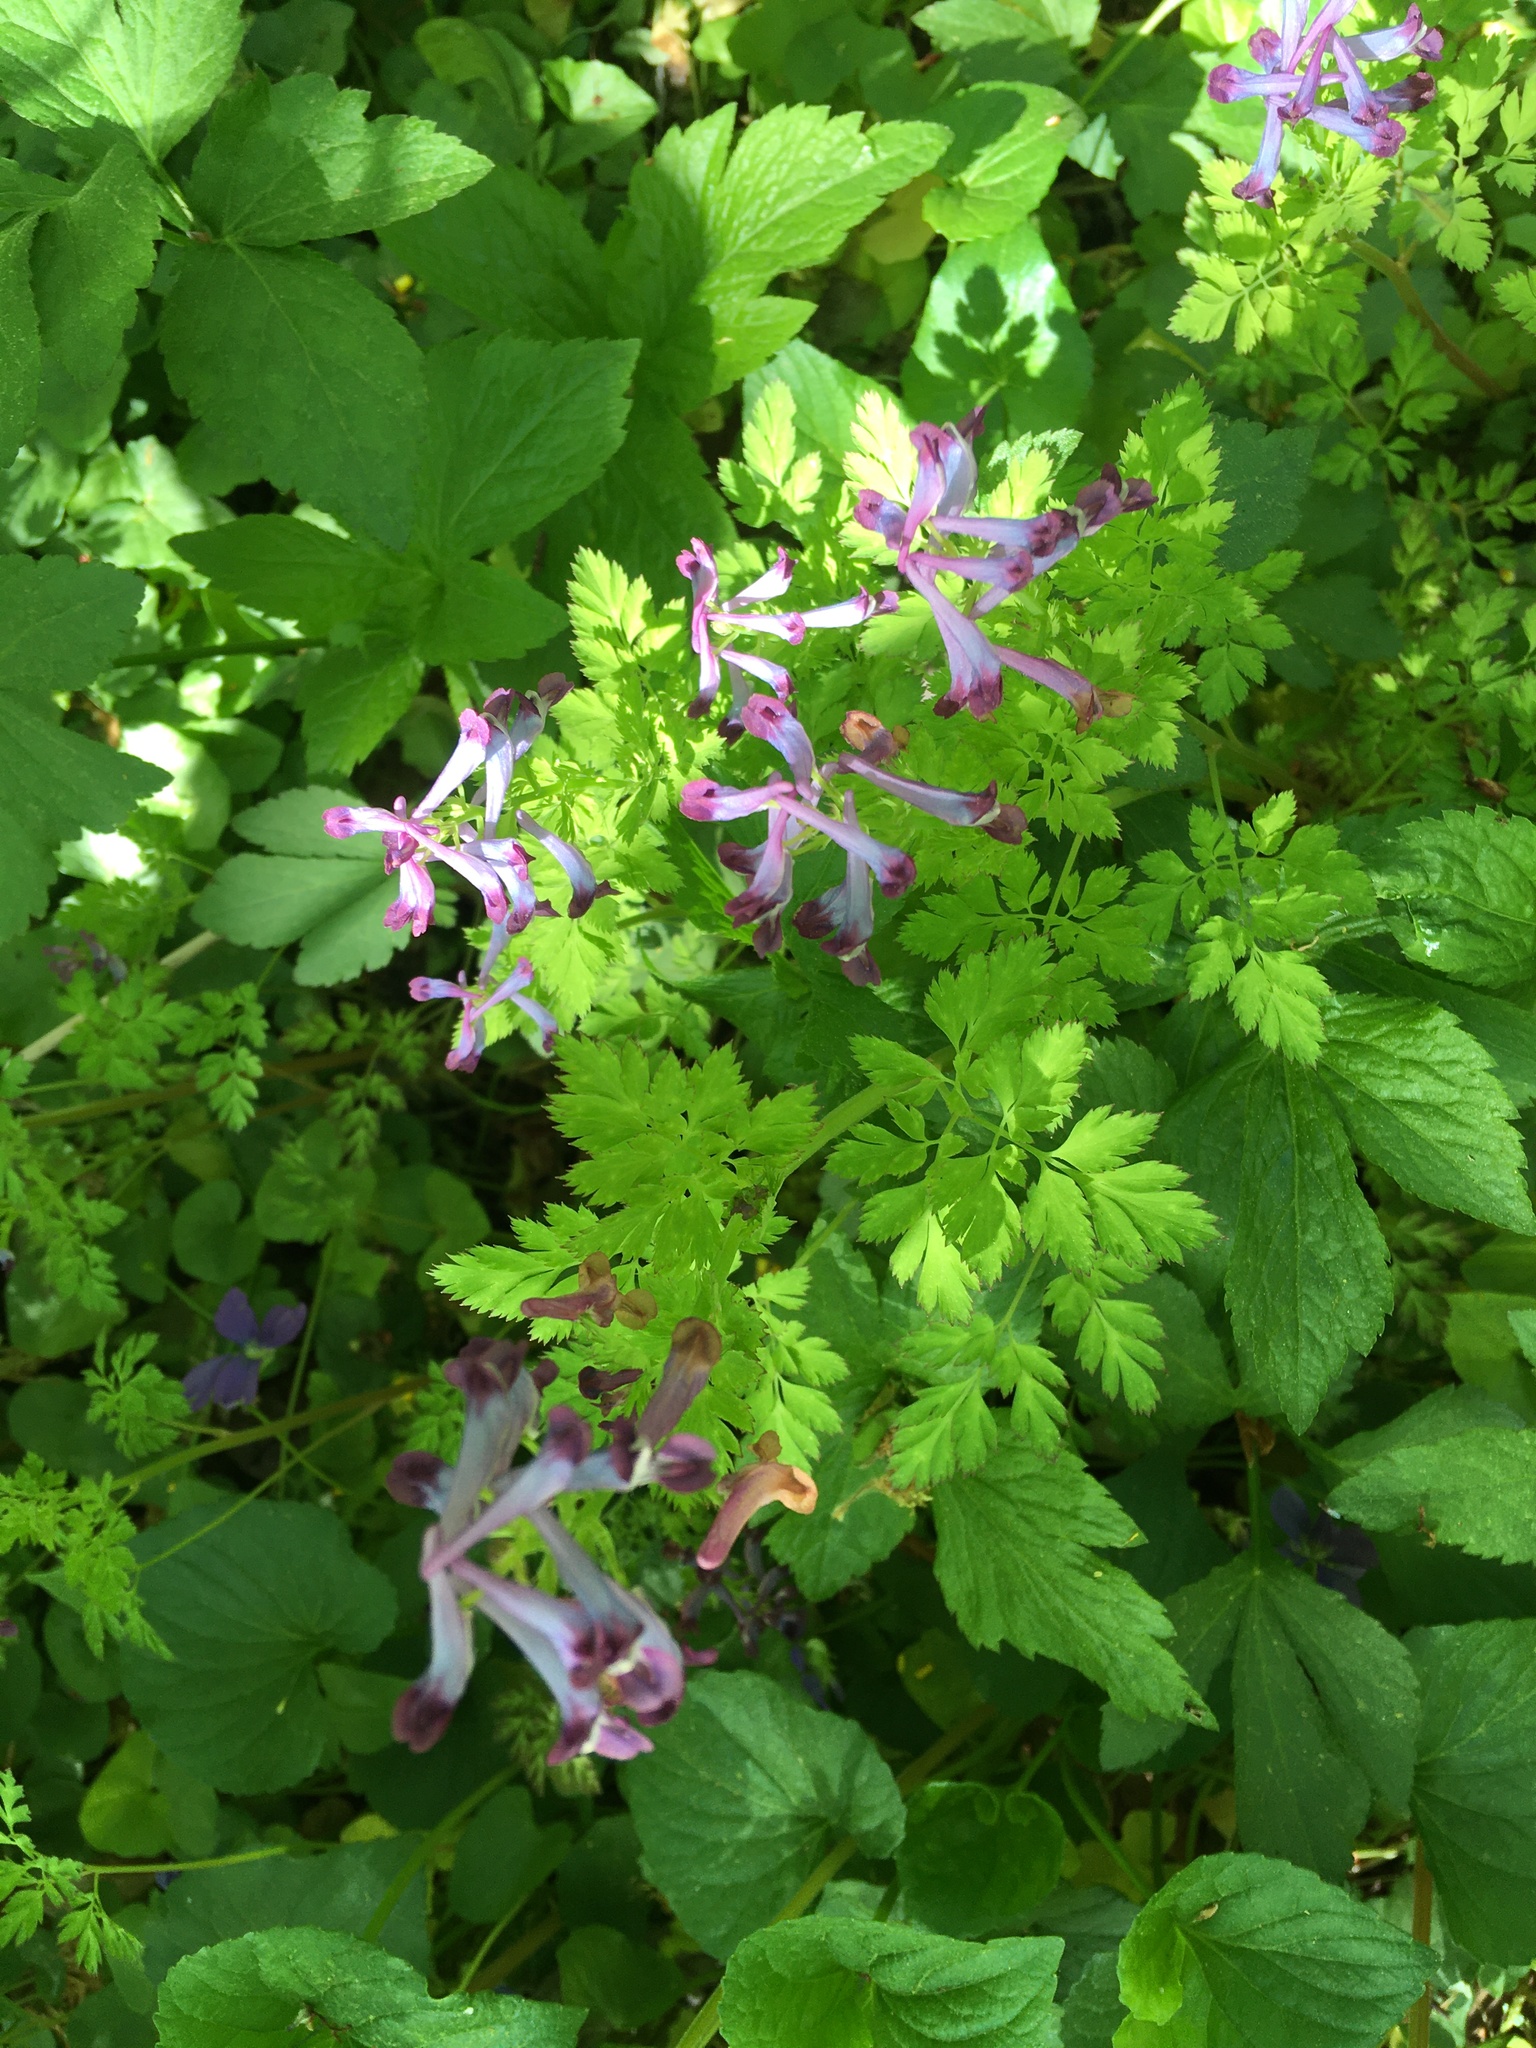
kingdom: Plantae
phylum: Tracheophyta
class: Magnoliopsida
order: Ranunculales
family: Papaveraceae
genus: Corydalis
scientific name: Corydalis incisa
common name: Incised fumewort
